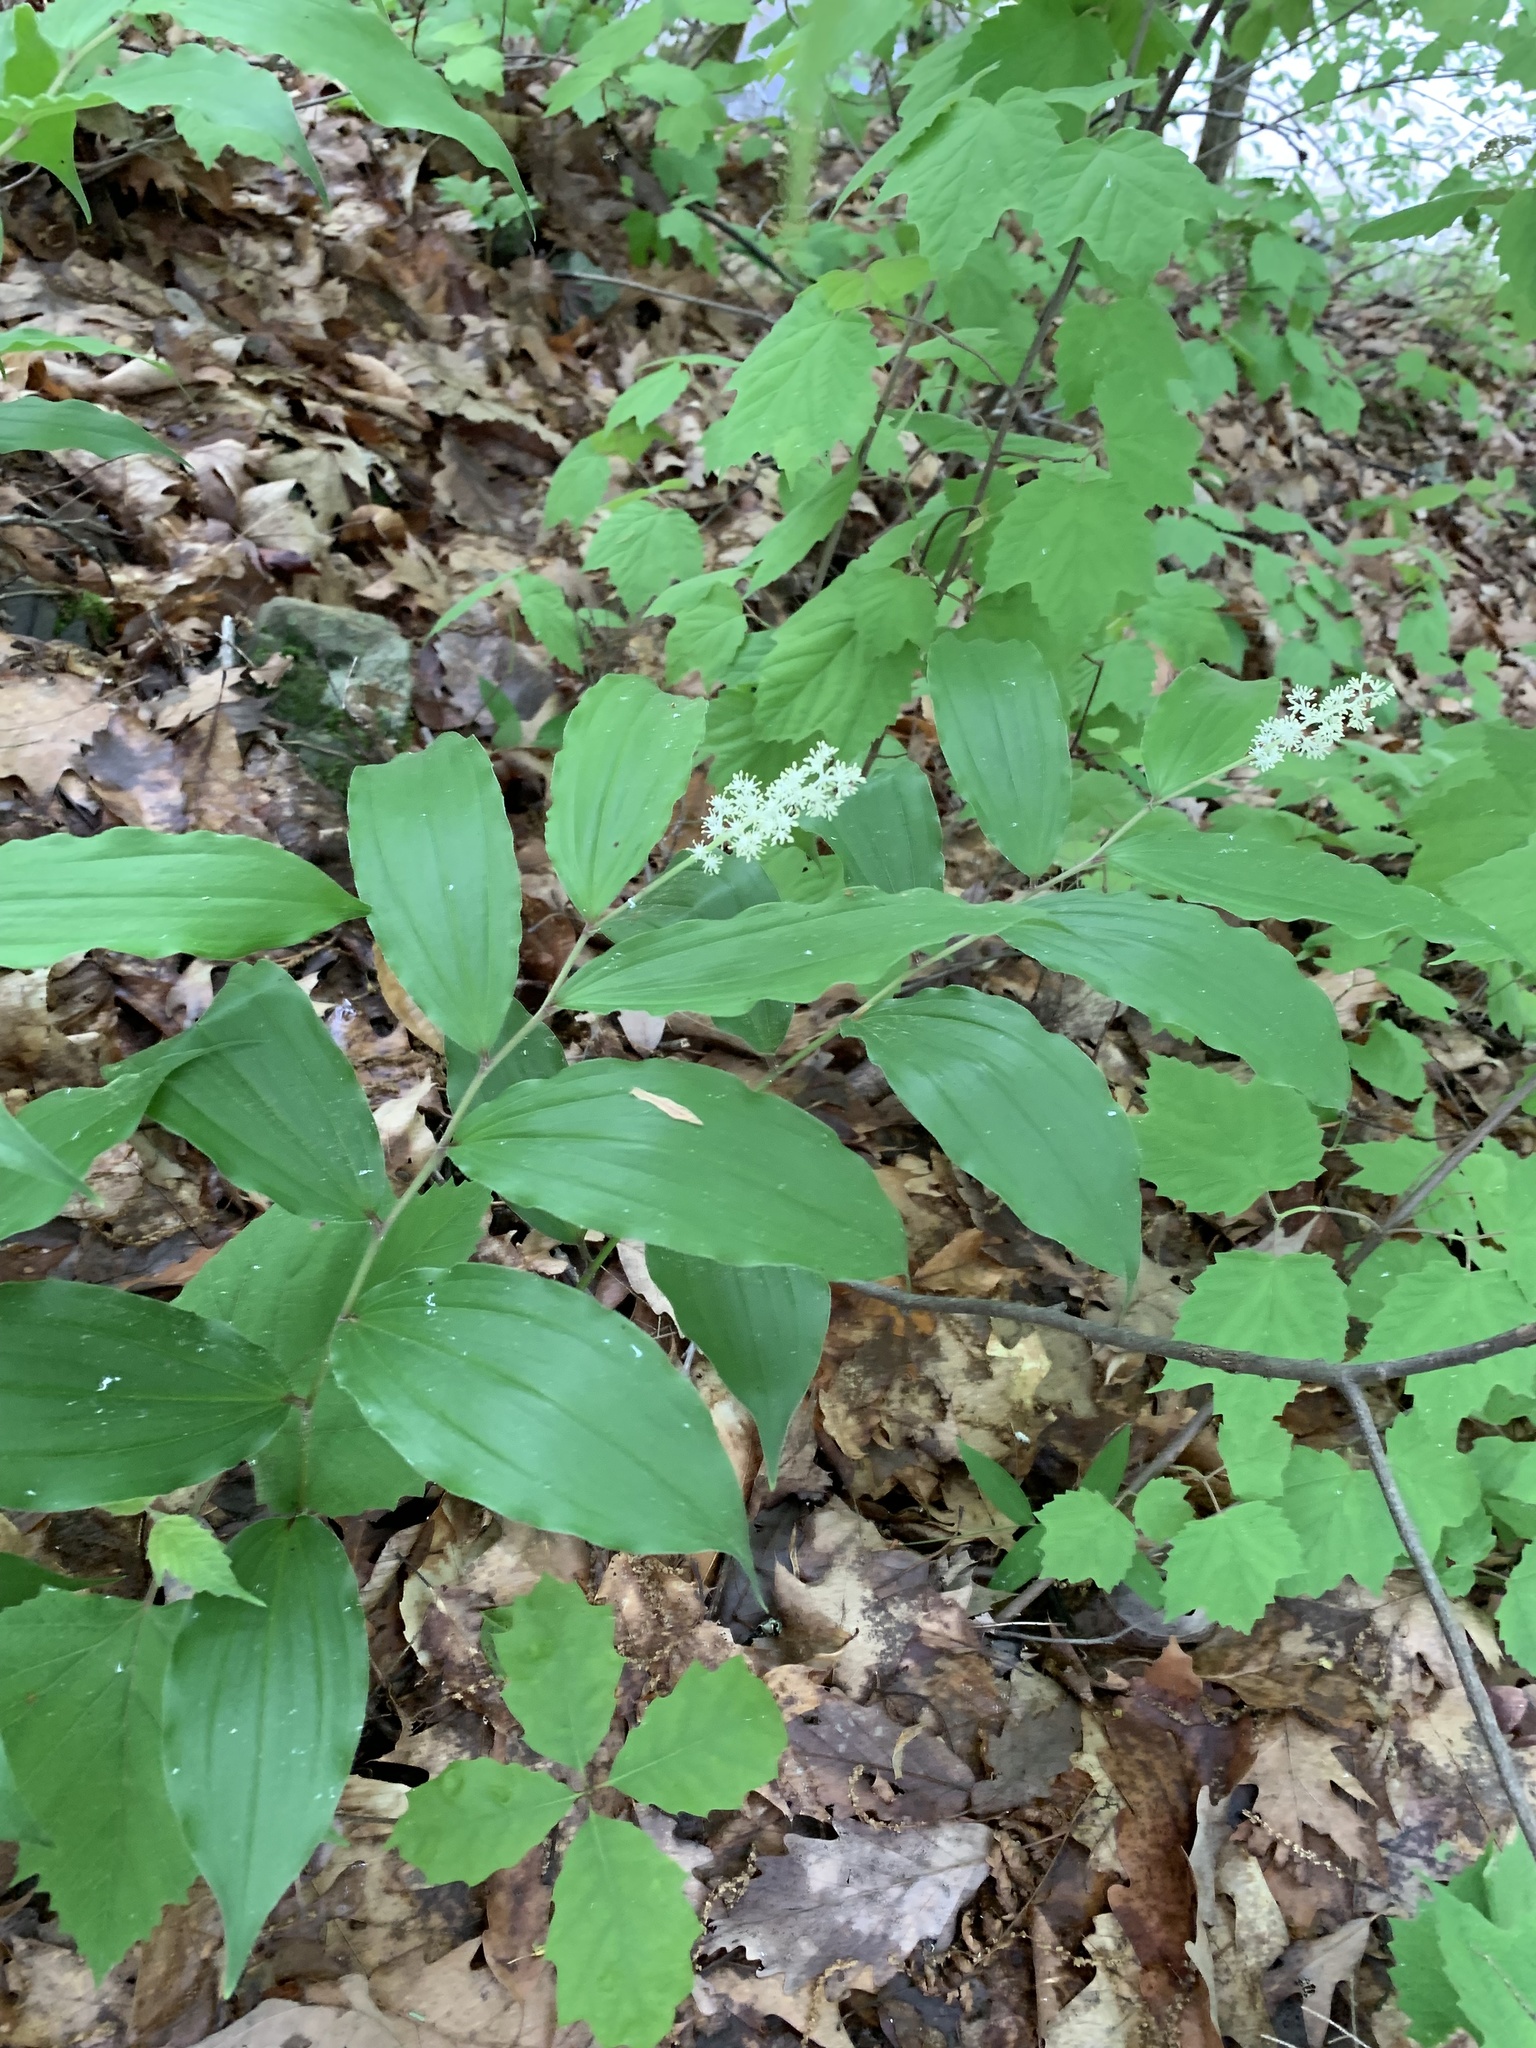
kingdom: Plantae
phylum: Tracheophyta
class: Liliopsida
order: Asparagales
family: Asparagaceae
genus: Maianthemum
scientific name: Maianthemum racemosum
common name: False spikenard
